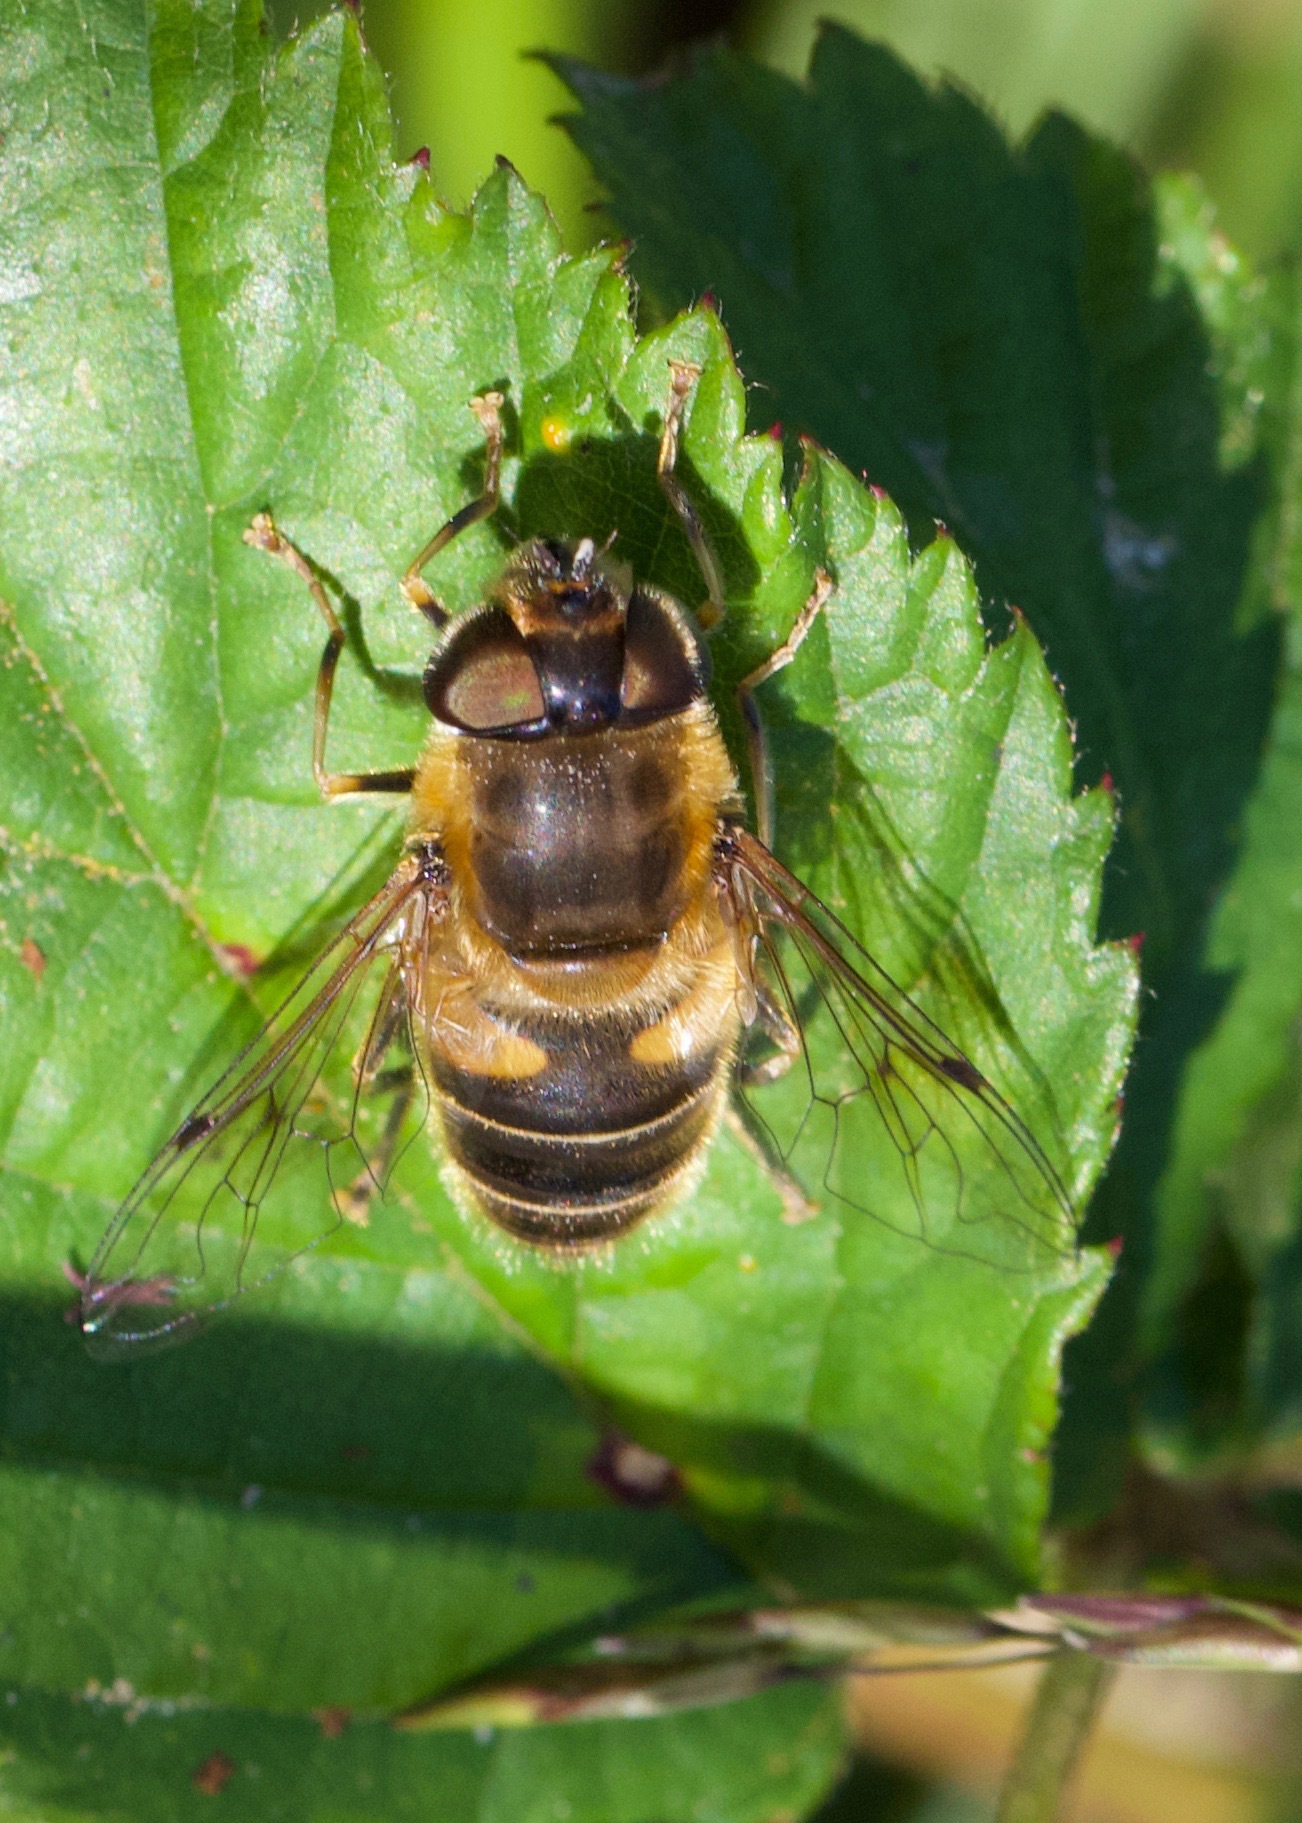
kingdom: Animalia
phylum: Arthropoda
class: Insecta
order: Diptera
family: Syrphidae
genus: Eristalis
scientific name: Eristalis pertinax
